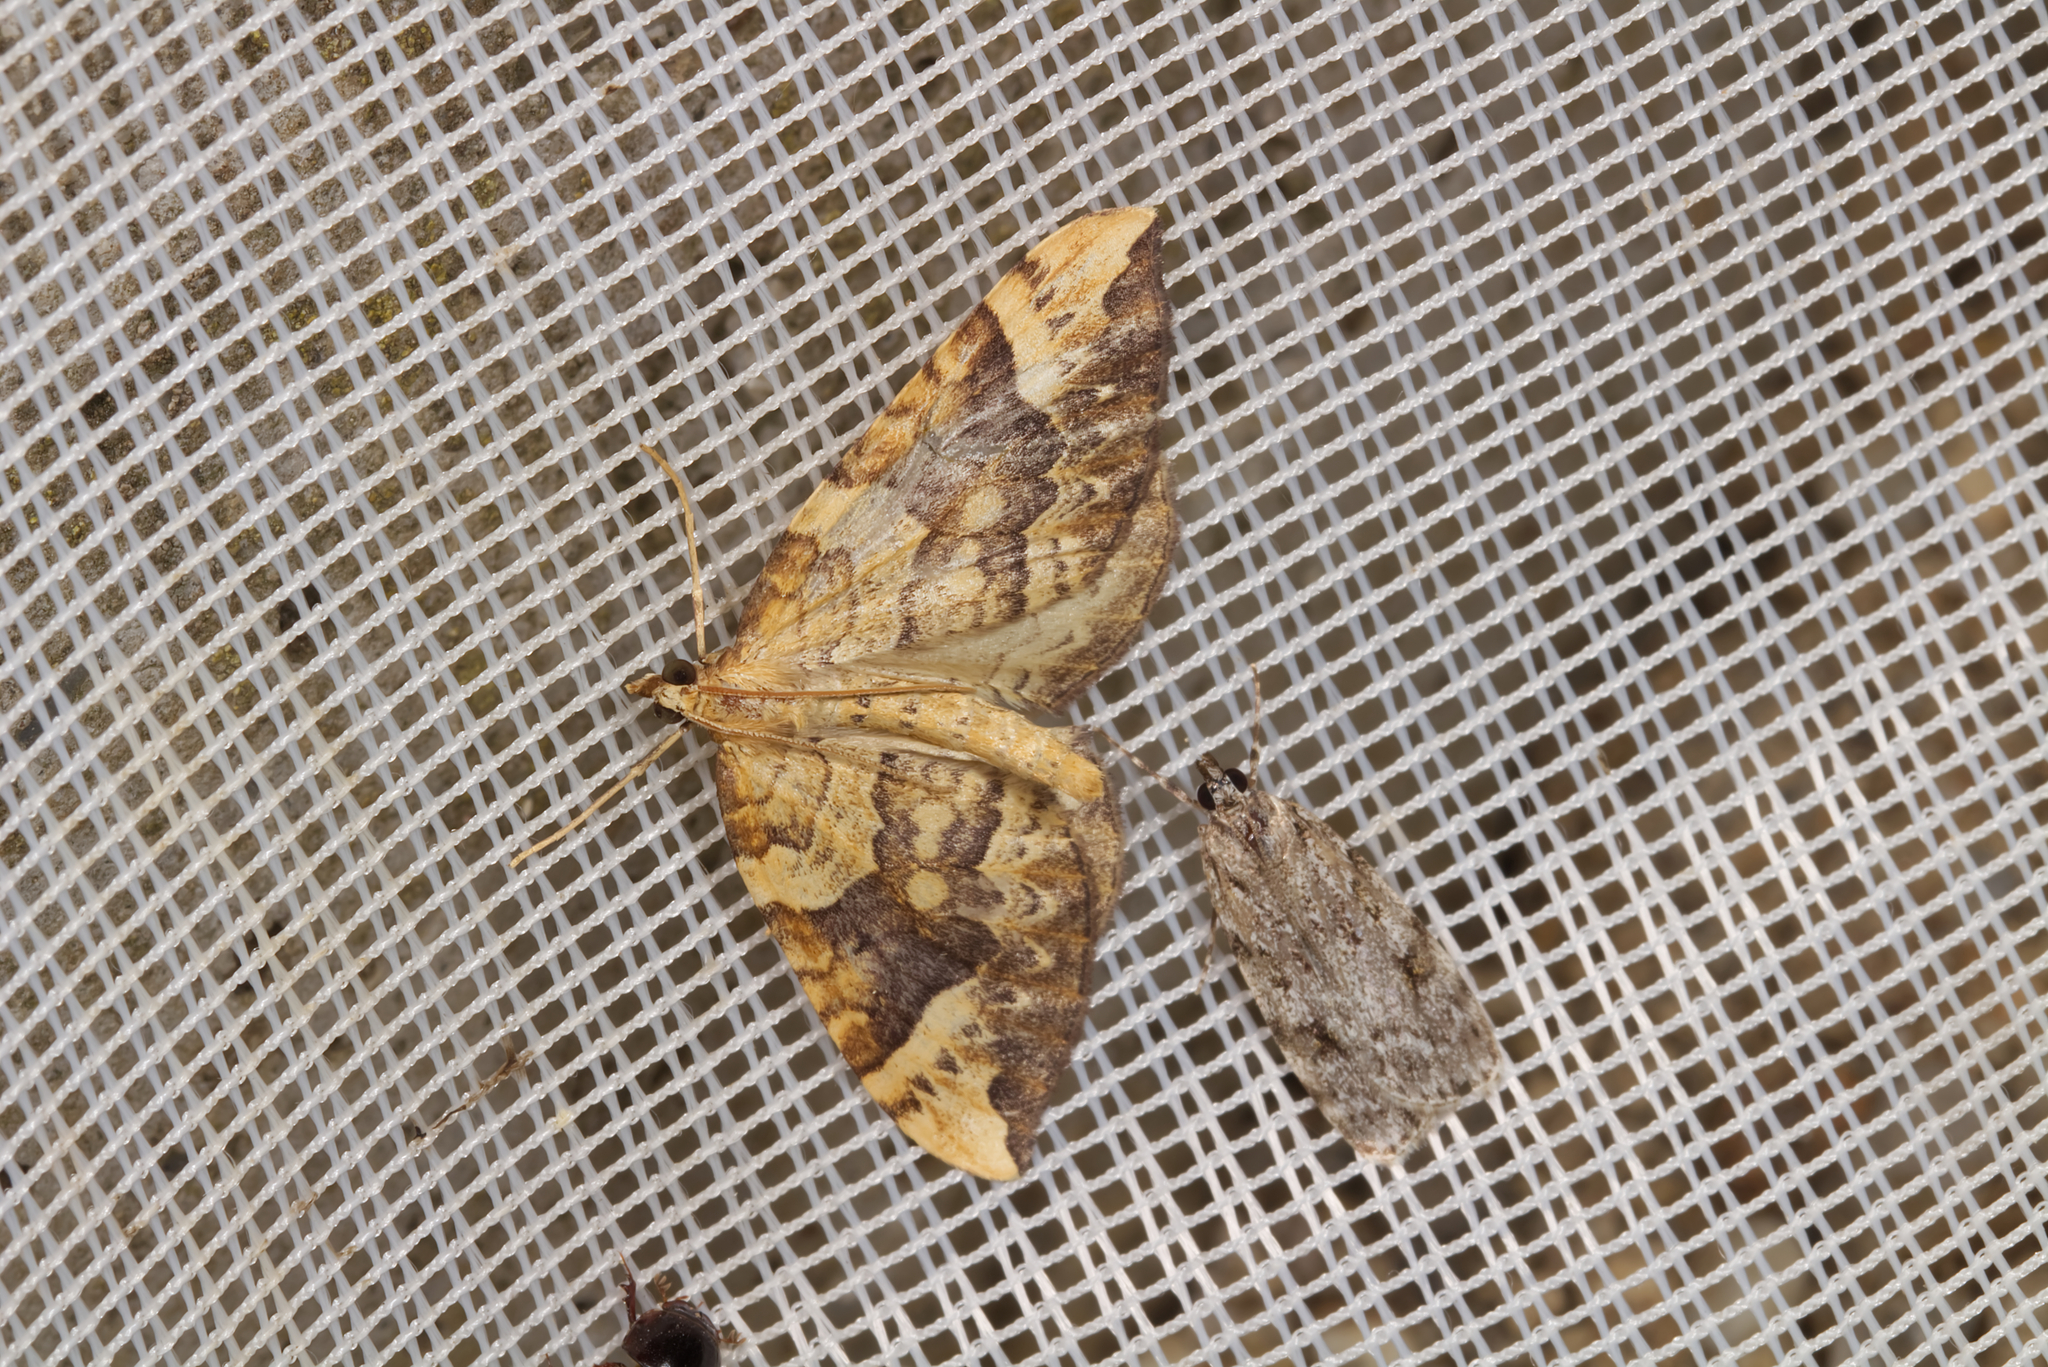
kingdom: Animalia
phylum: Arthropoda
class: Insecta
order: Lepidoptera
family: Geometridae
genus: Eulithis
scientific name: Eulithis populata
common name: Northern spinach
